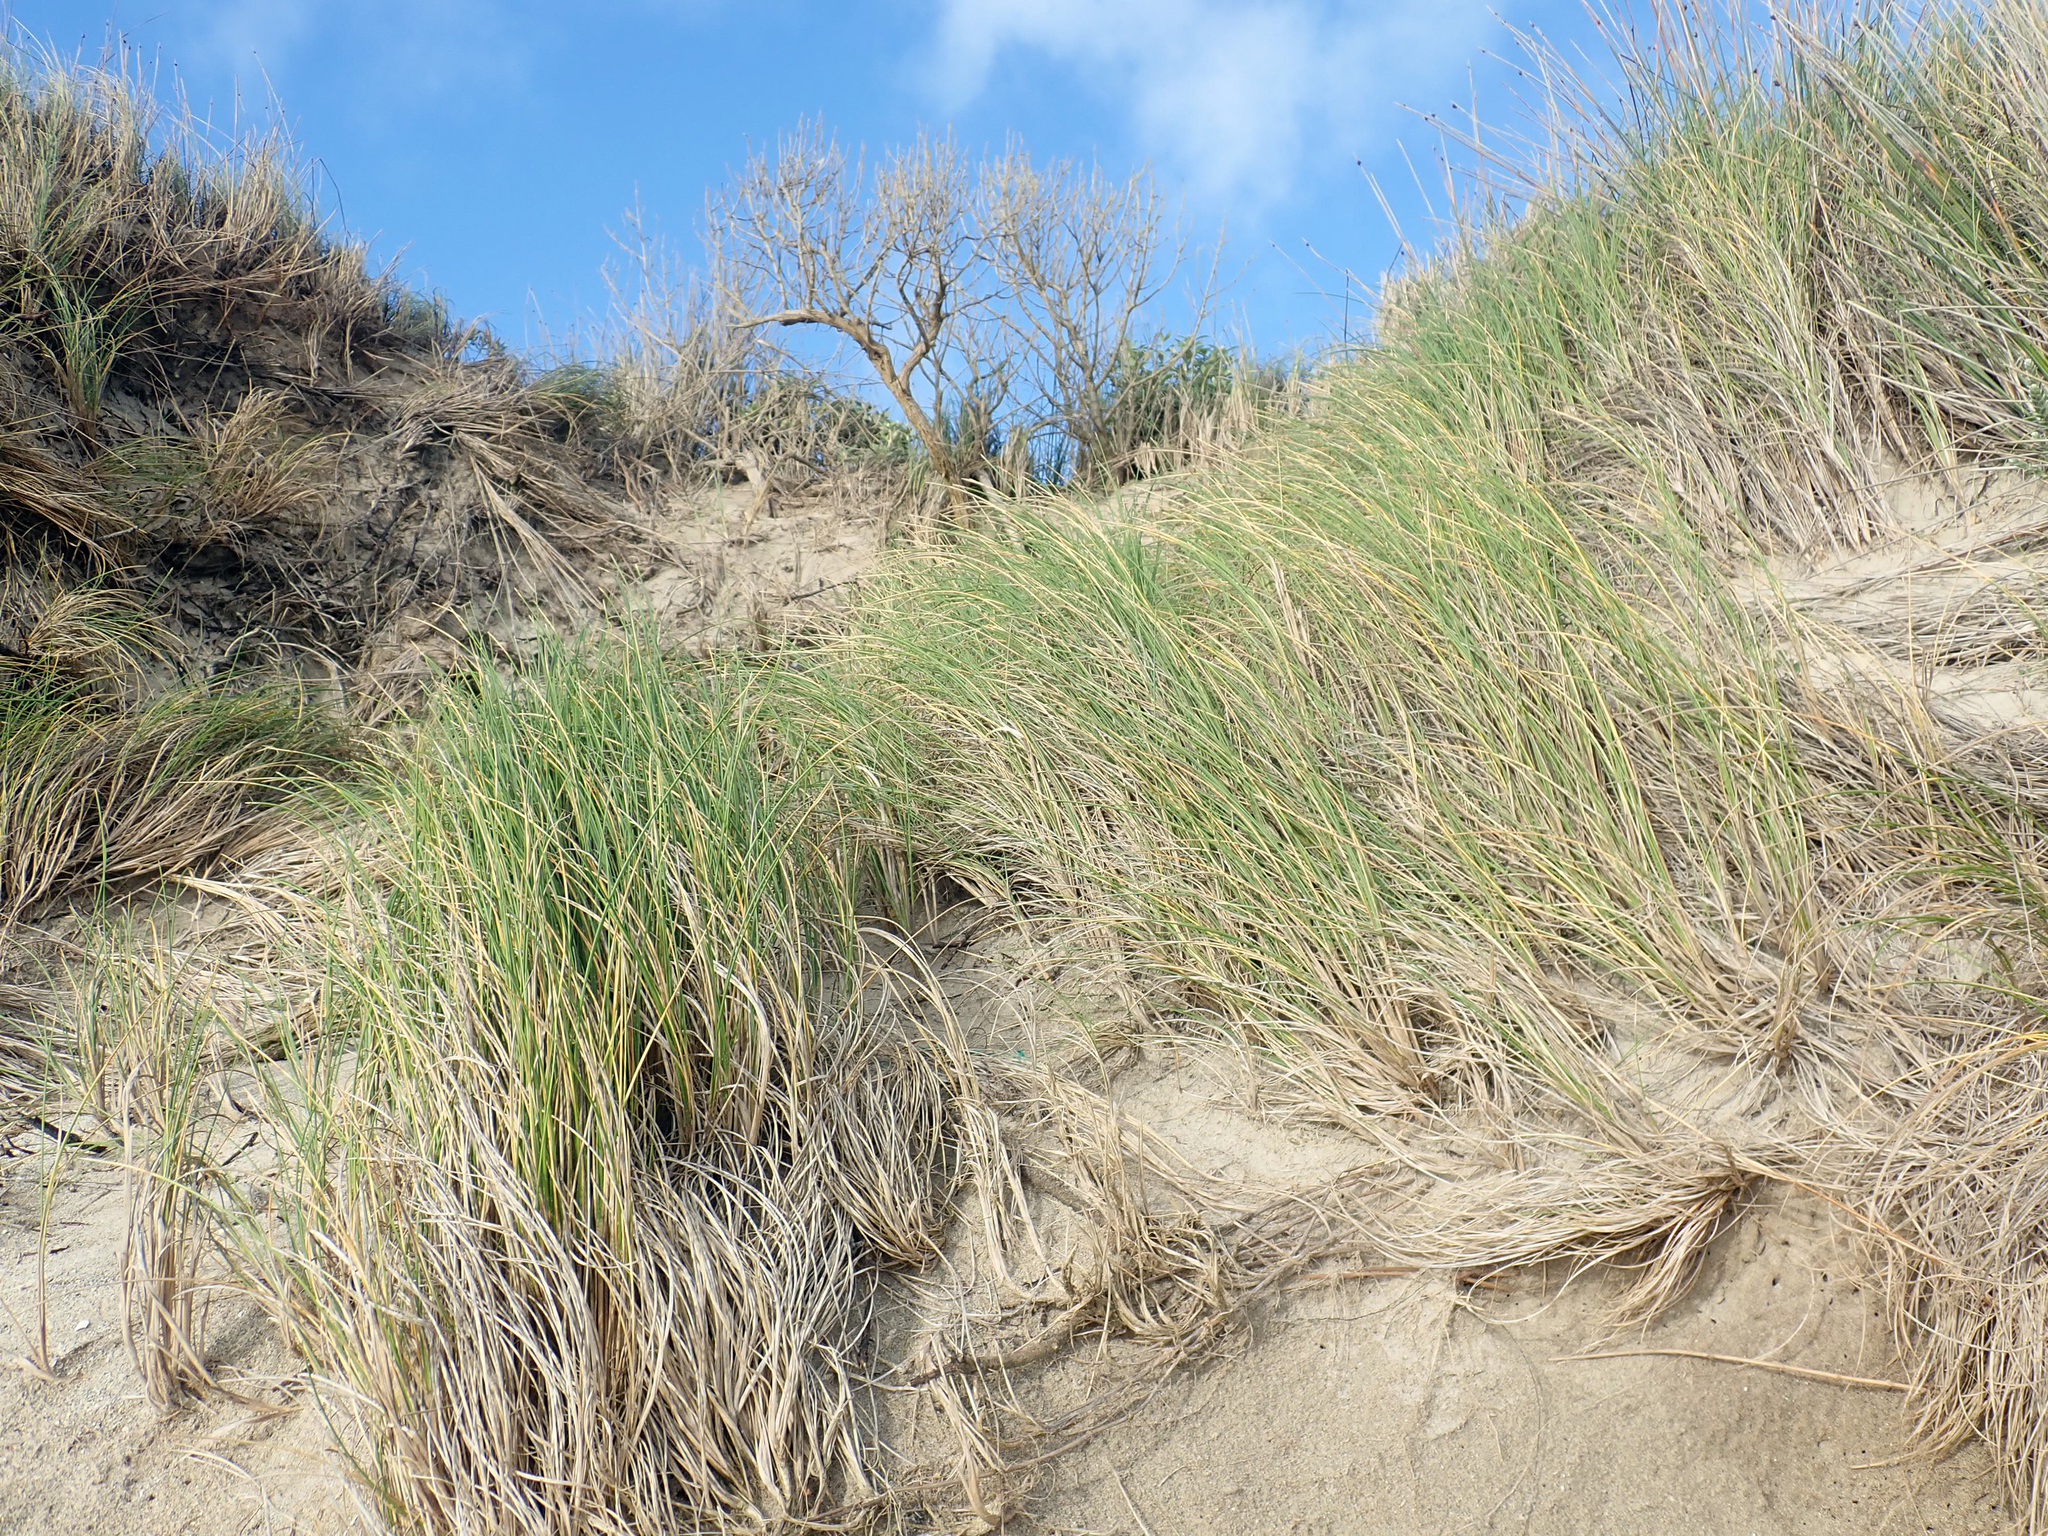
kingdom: Plantae
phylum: Tracheophyta
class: Liliopsida
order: Poales
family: Poaceae
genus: Poa
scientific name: Poa chathamica
